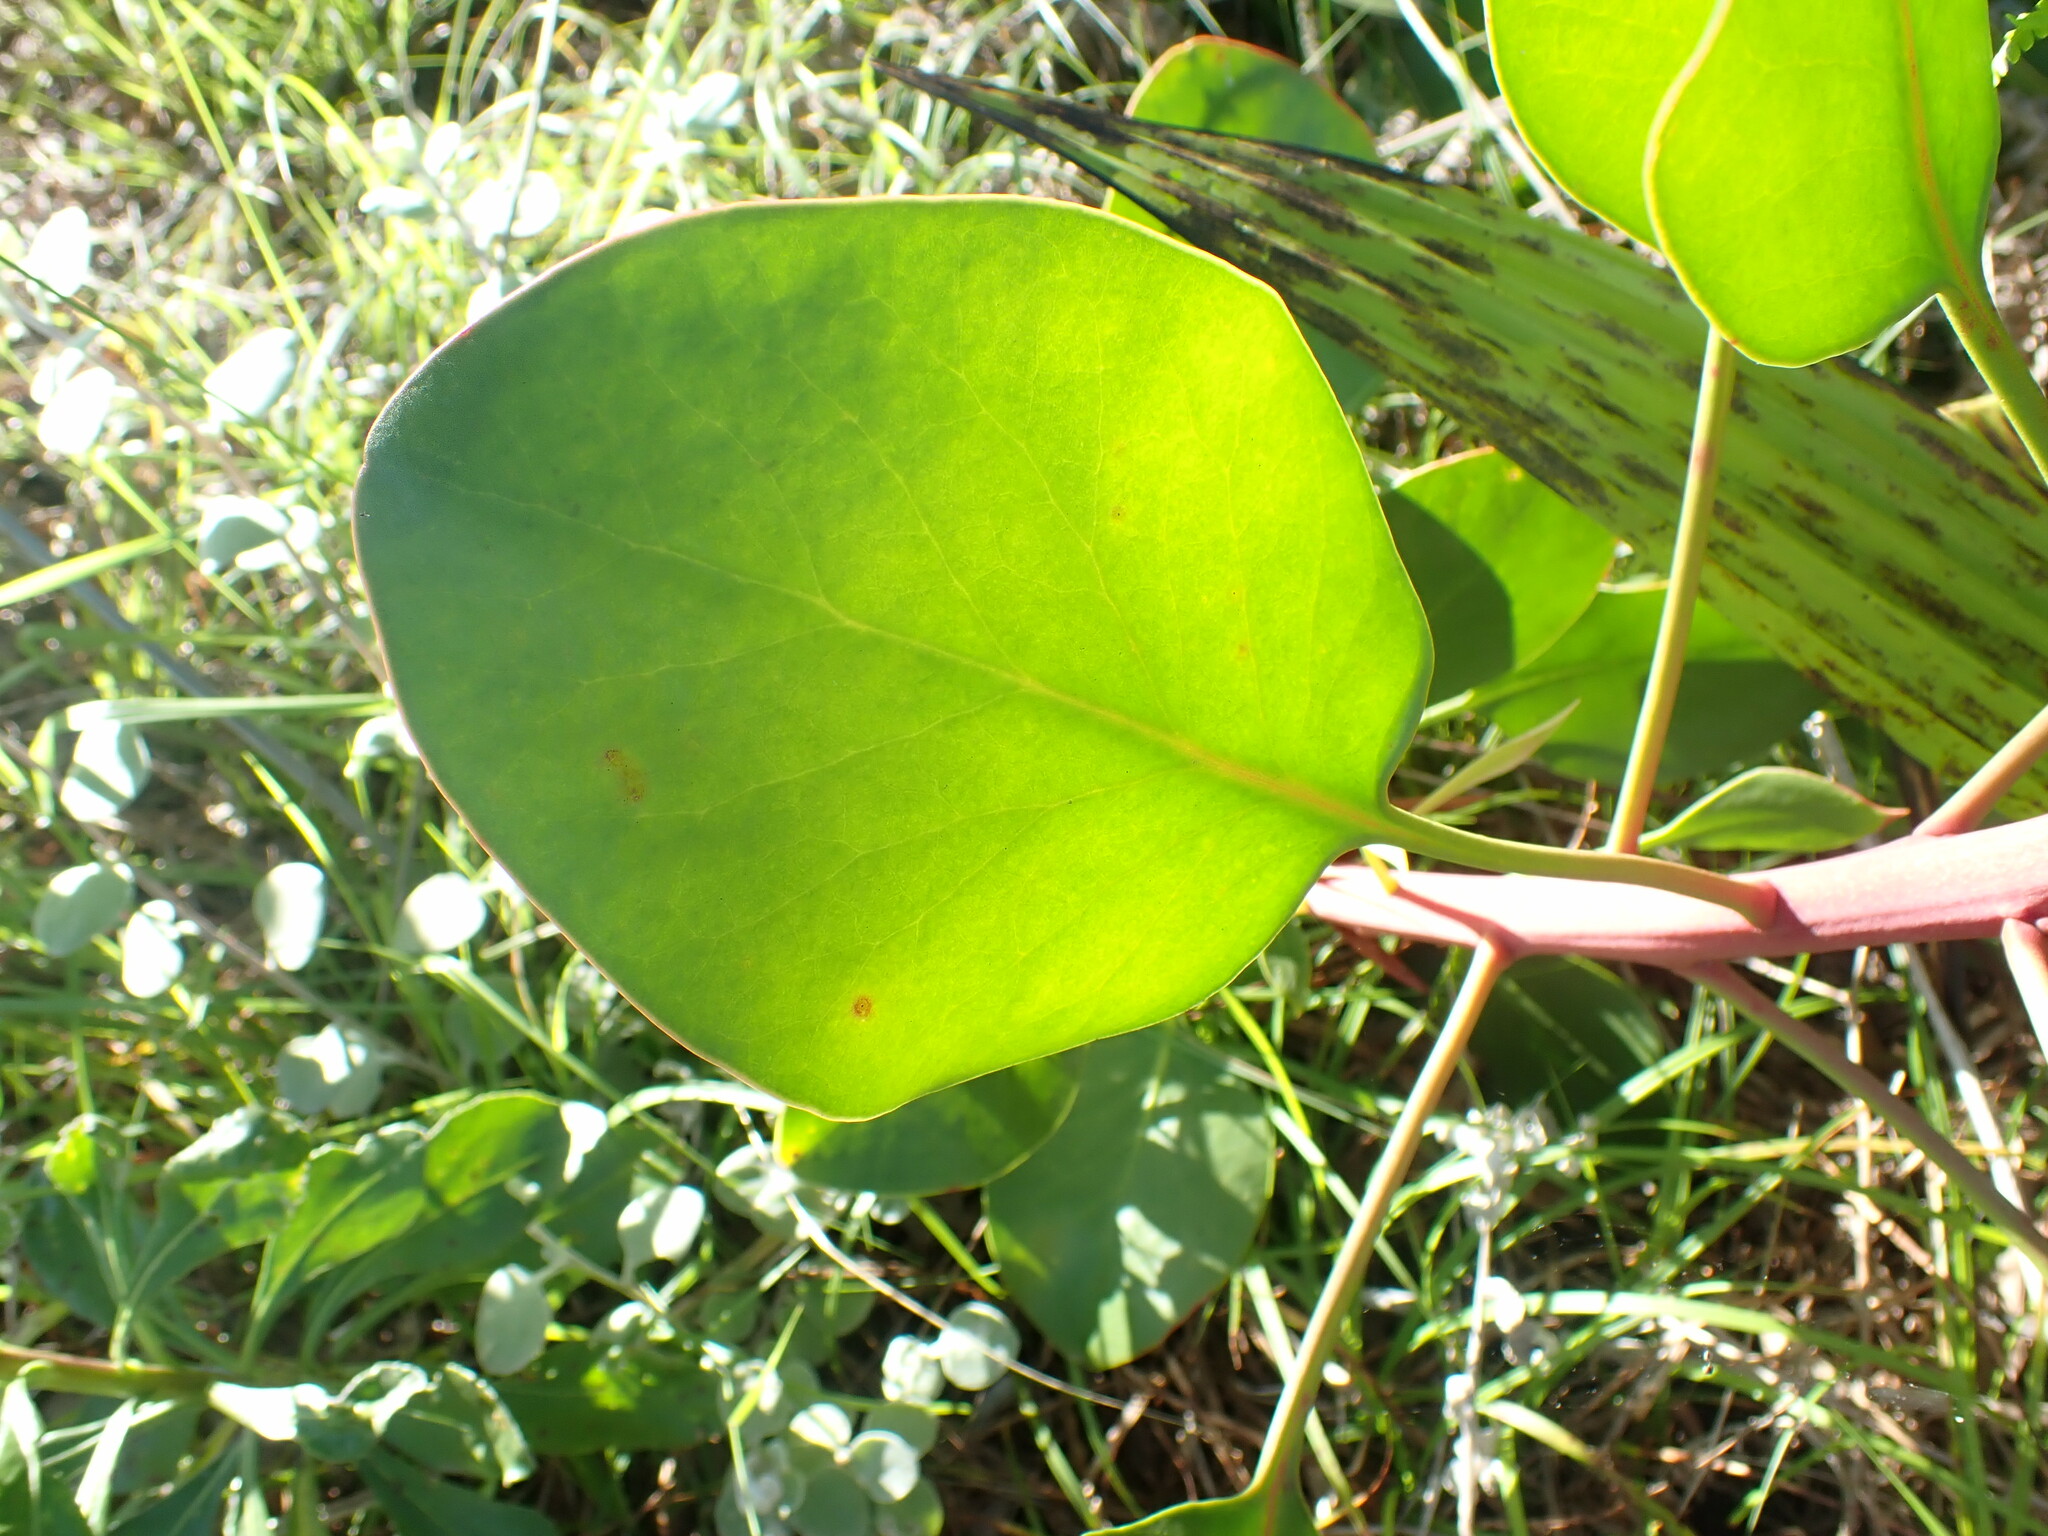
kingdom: Plantae
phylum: Tracheophyta
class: Magnoliopsida
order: Proteales
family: Proteaceae
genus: Protea
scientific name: Protea cynaroides
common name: King protea
